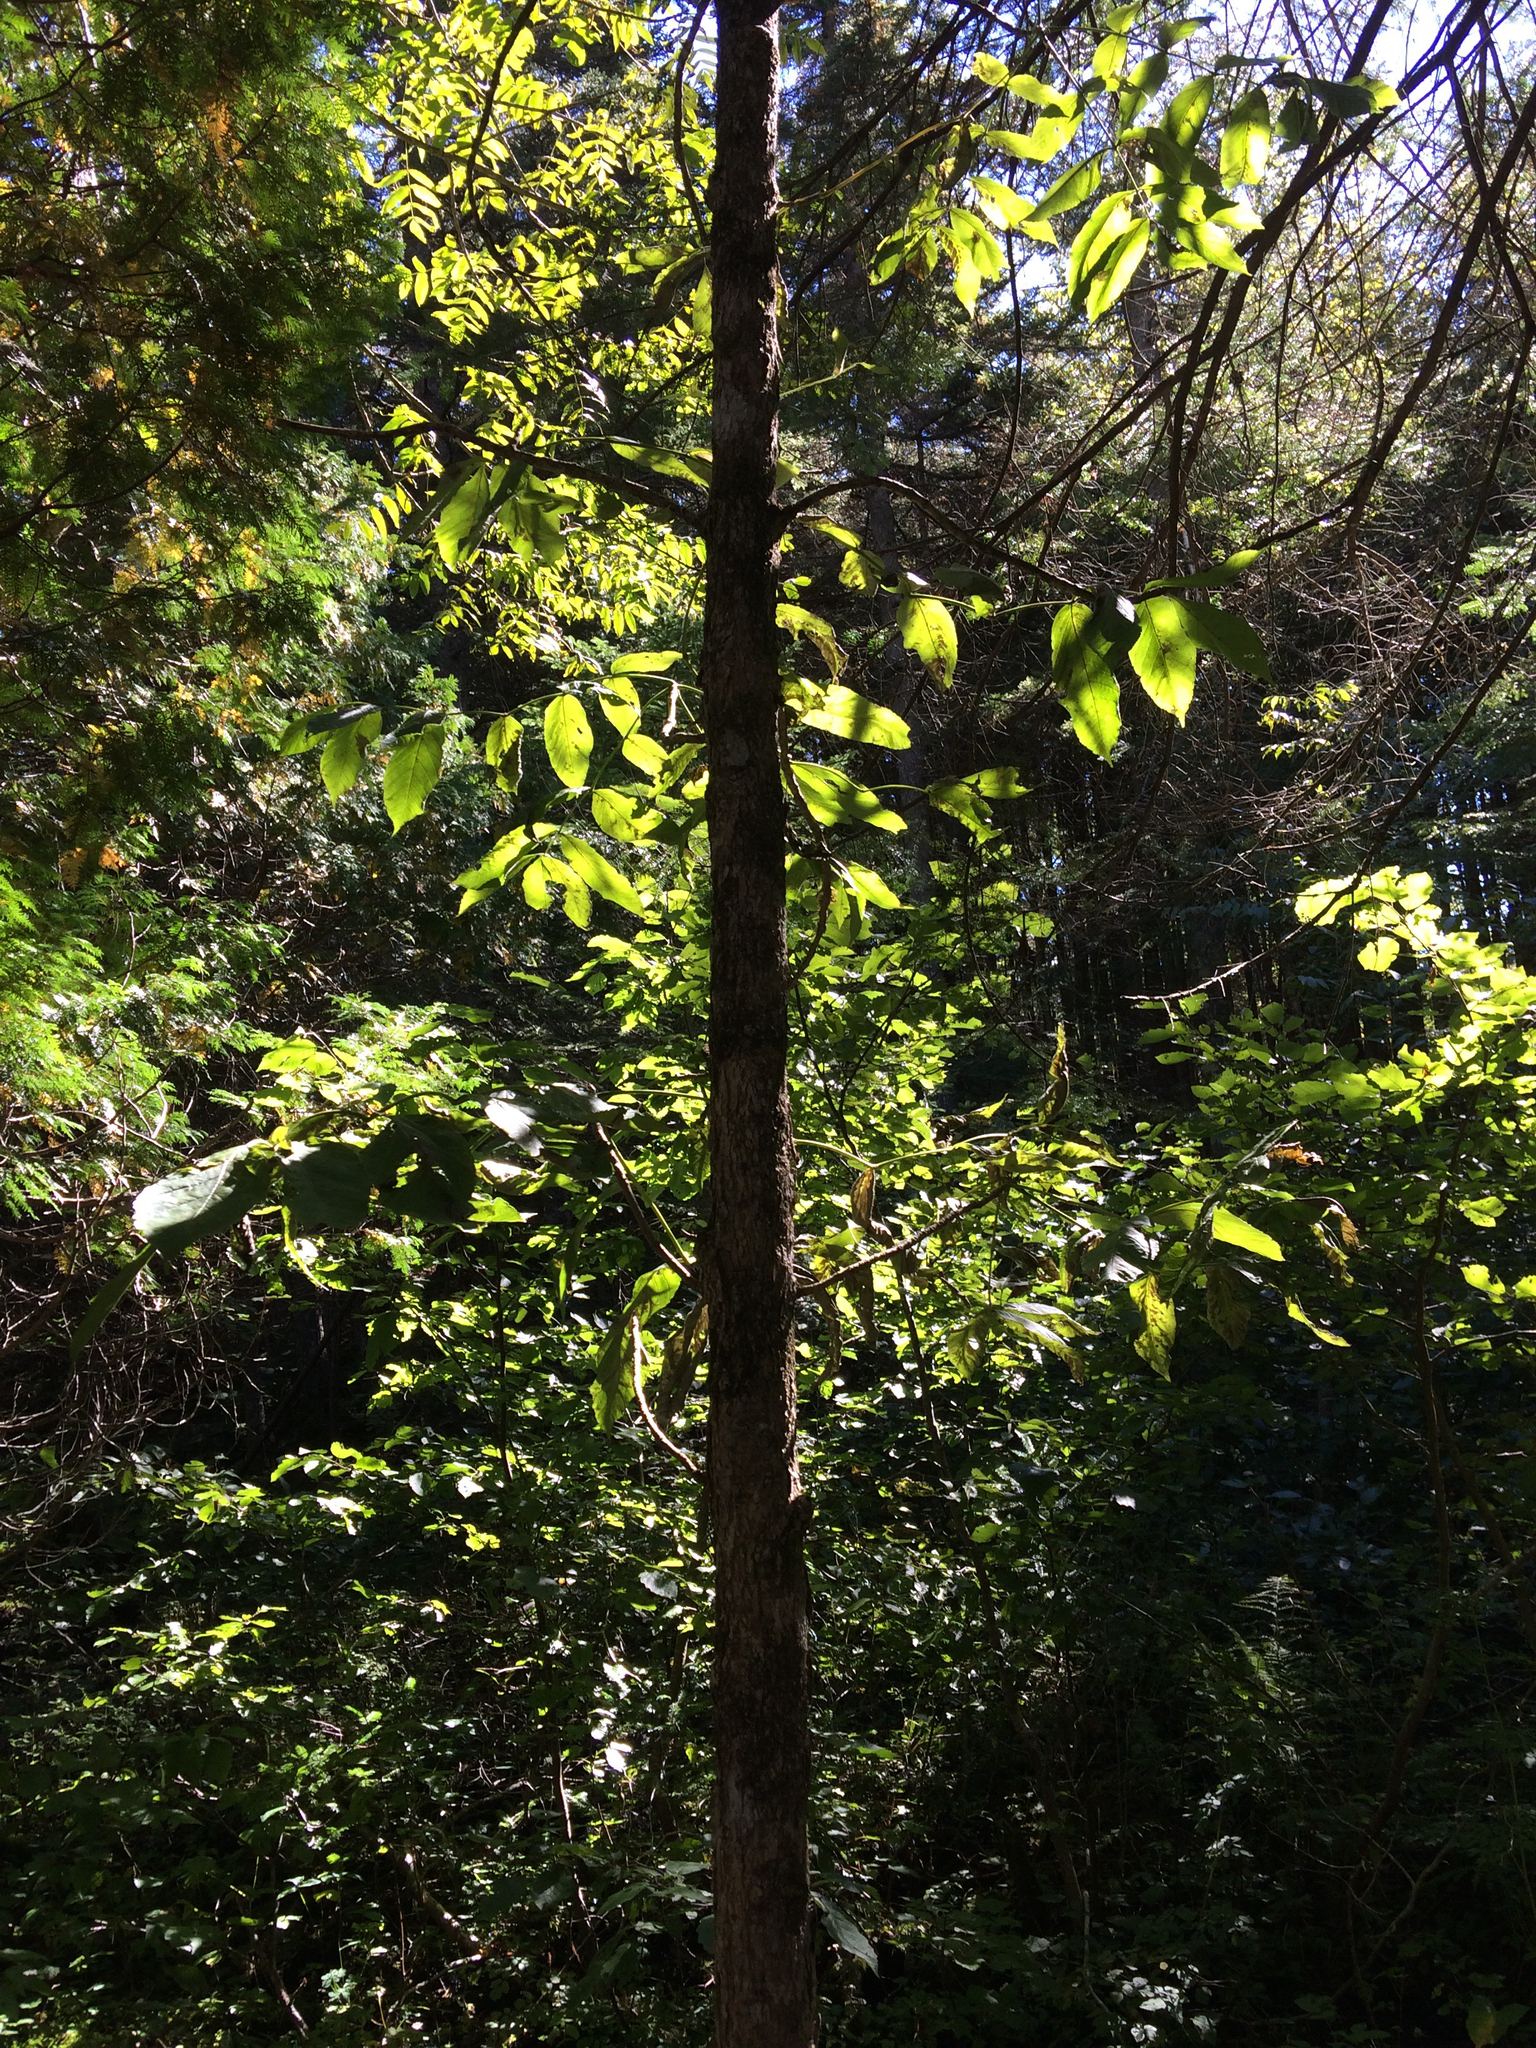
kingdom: Plantae
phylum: Tracheophyta
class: Magnoliopsida
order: Lamiales
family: Oleaceae
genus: Fraxinus
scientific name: Fraxinus nigra
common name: Black ash
